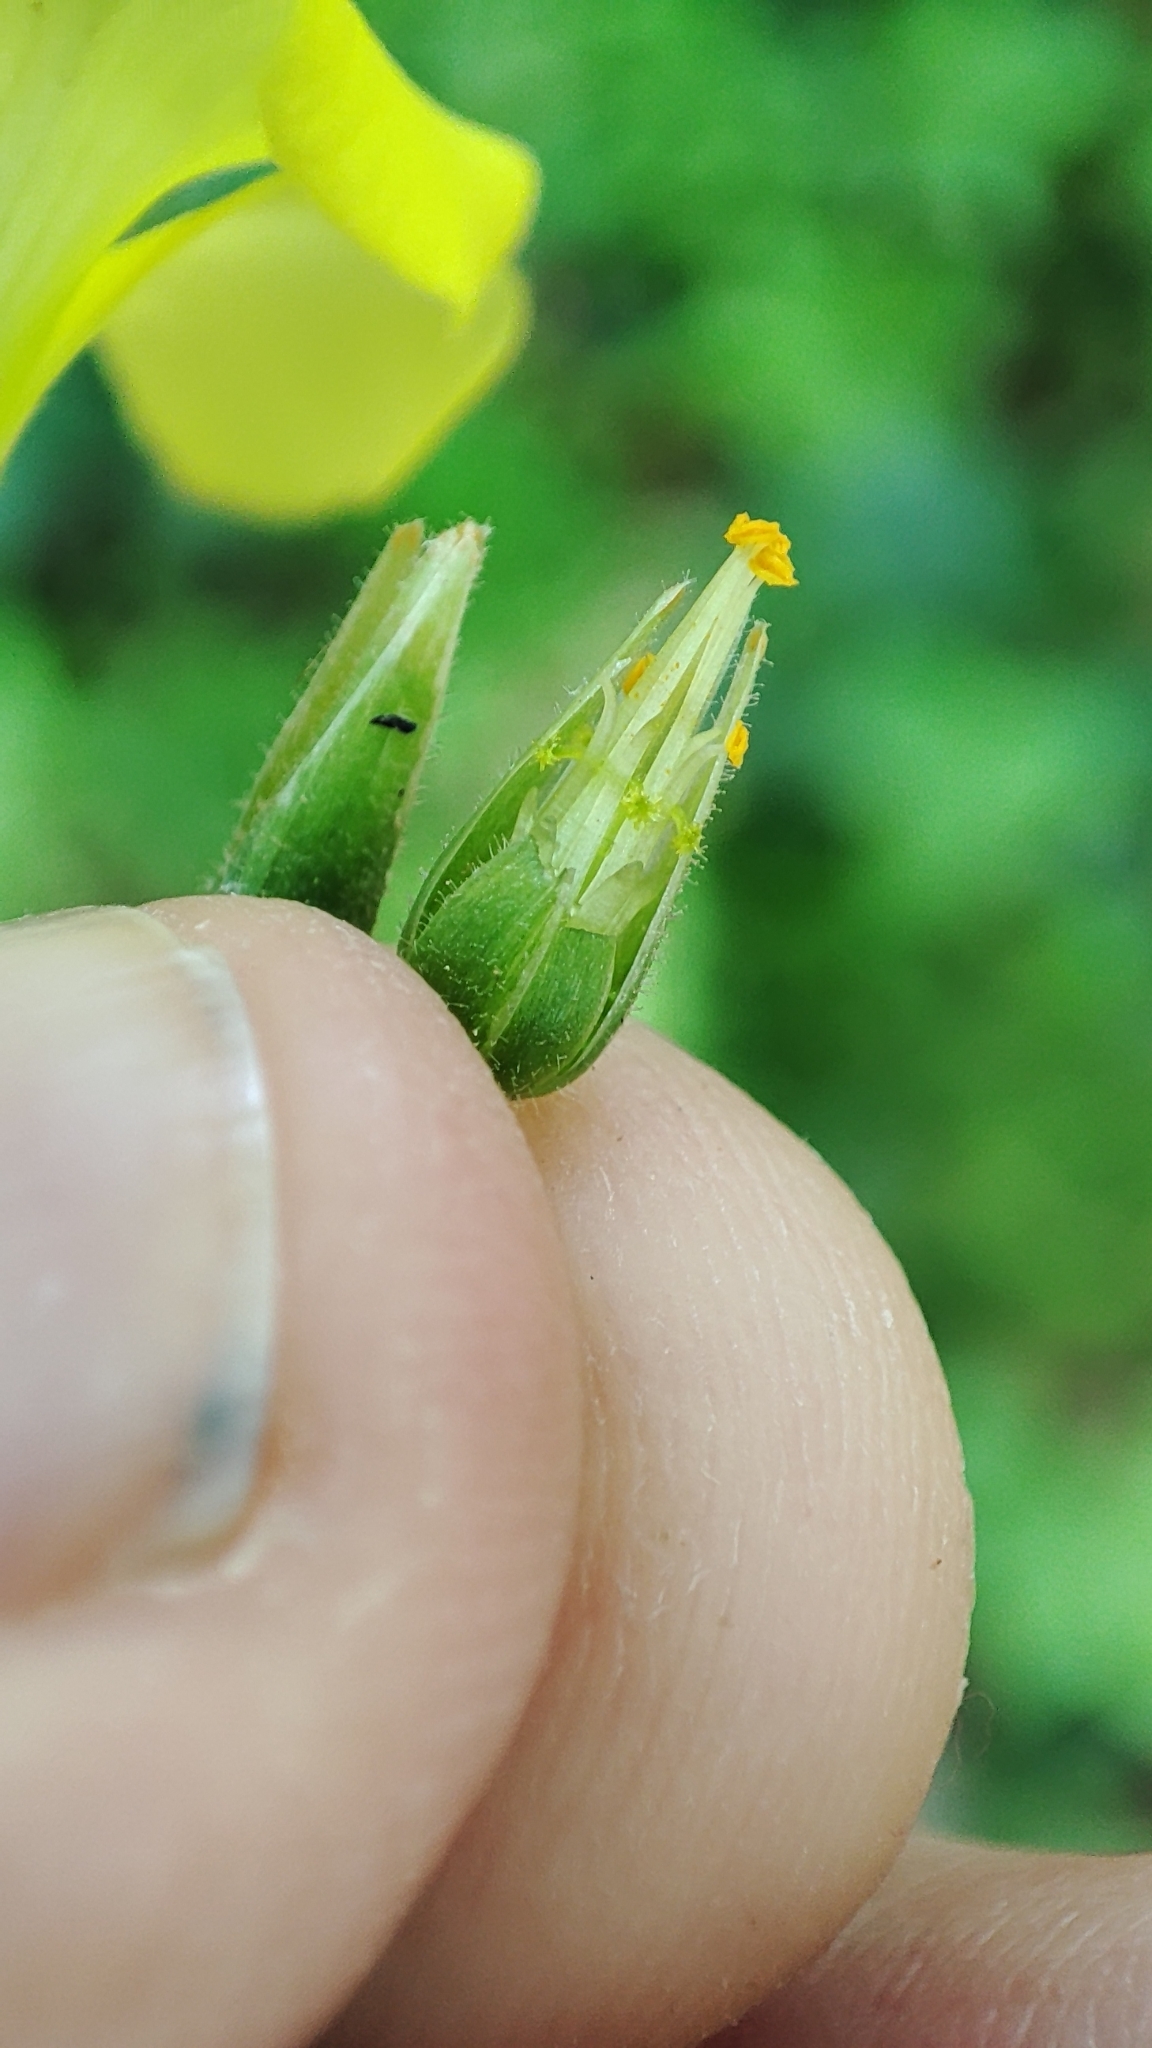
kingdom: Plantae
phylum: Tracheophyta
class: Magnoliopsida
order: Oxalidales
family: Oxalidaceae
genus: Oxalis
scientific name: Oxalis pes-caprae
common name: Bermuda-buttercup
